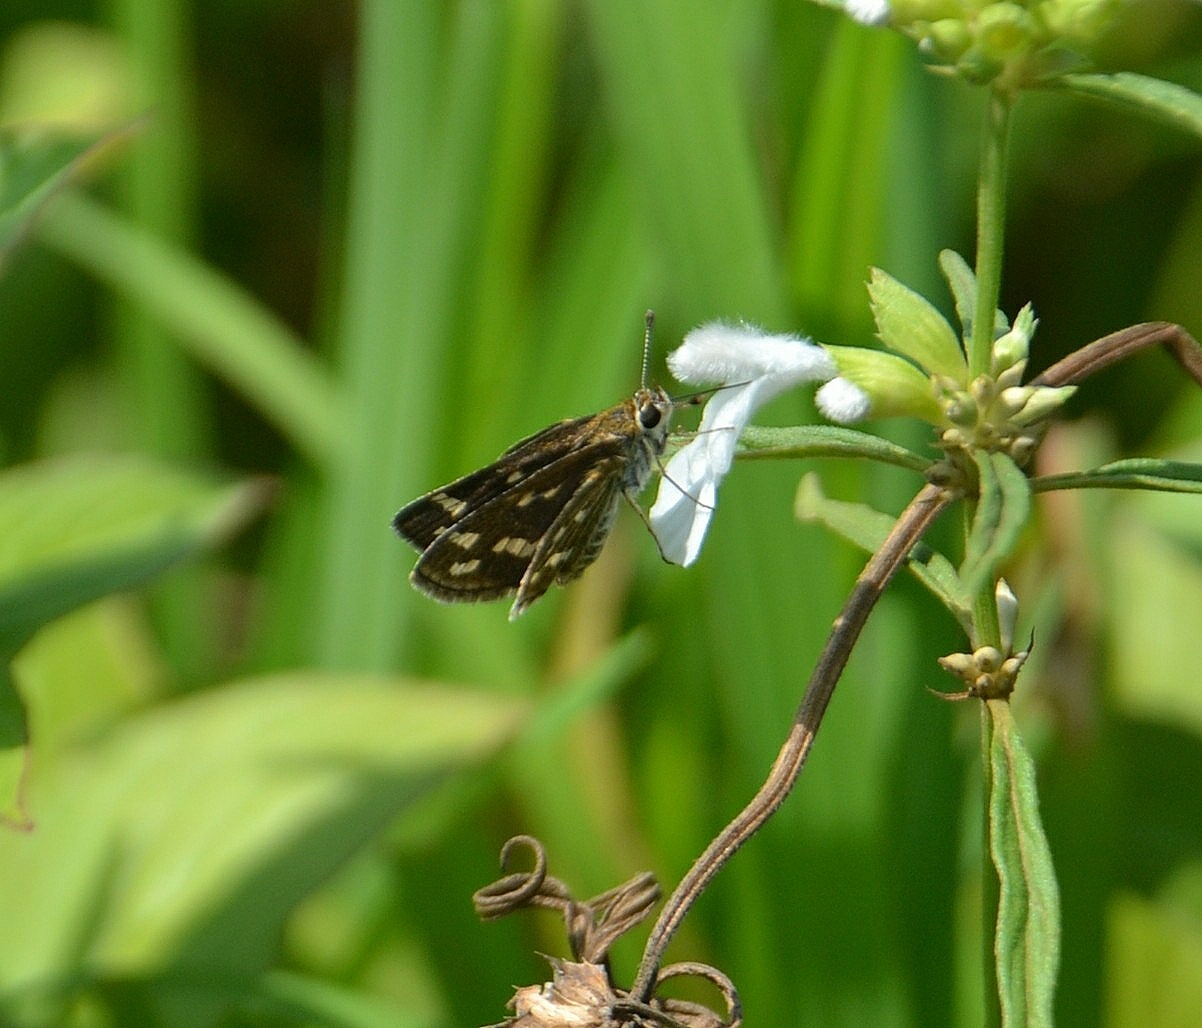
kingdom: Animalia
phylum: Arthropoda
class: Insecta
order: Lepidoptera
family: Hesperiidae
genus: Taractrocera
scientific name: Taractrocera maevius
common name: Common grass-dart
